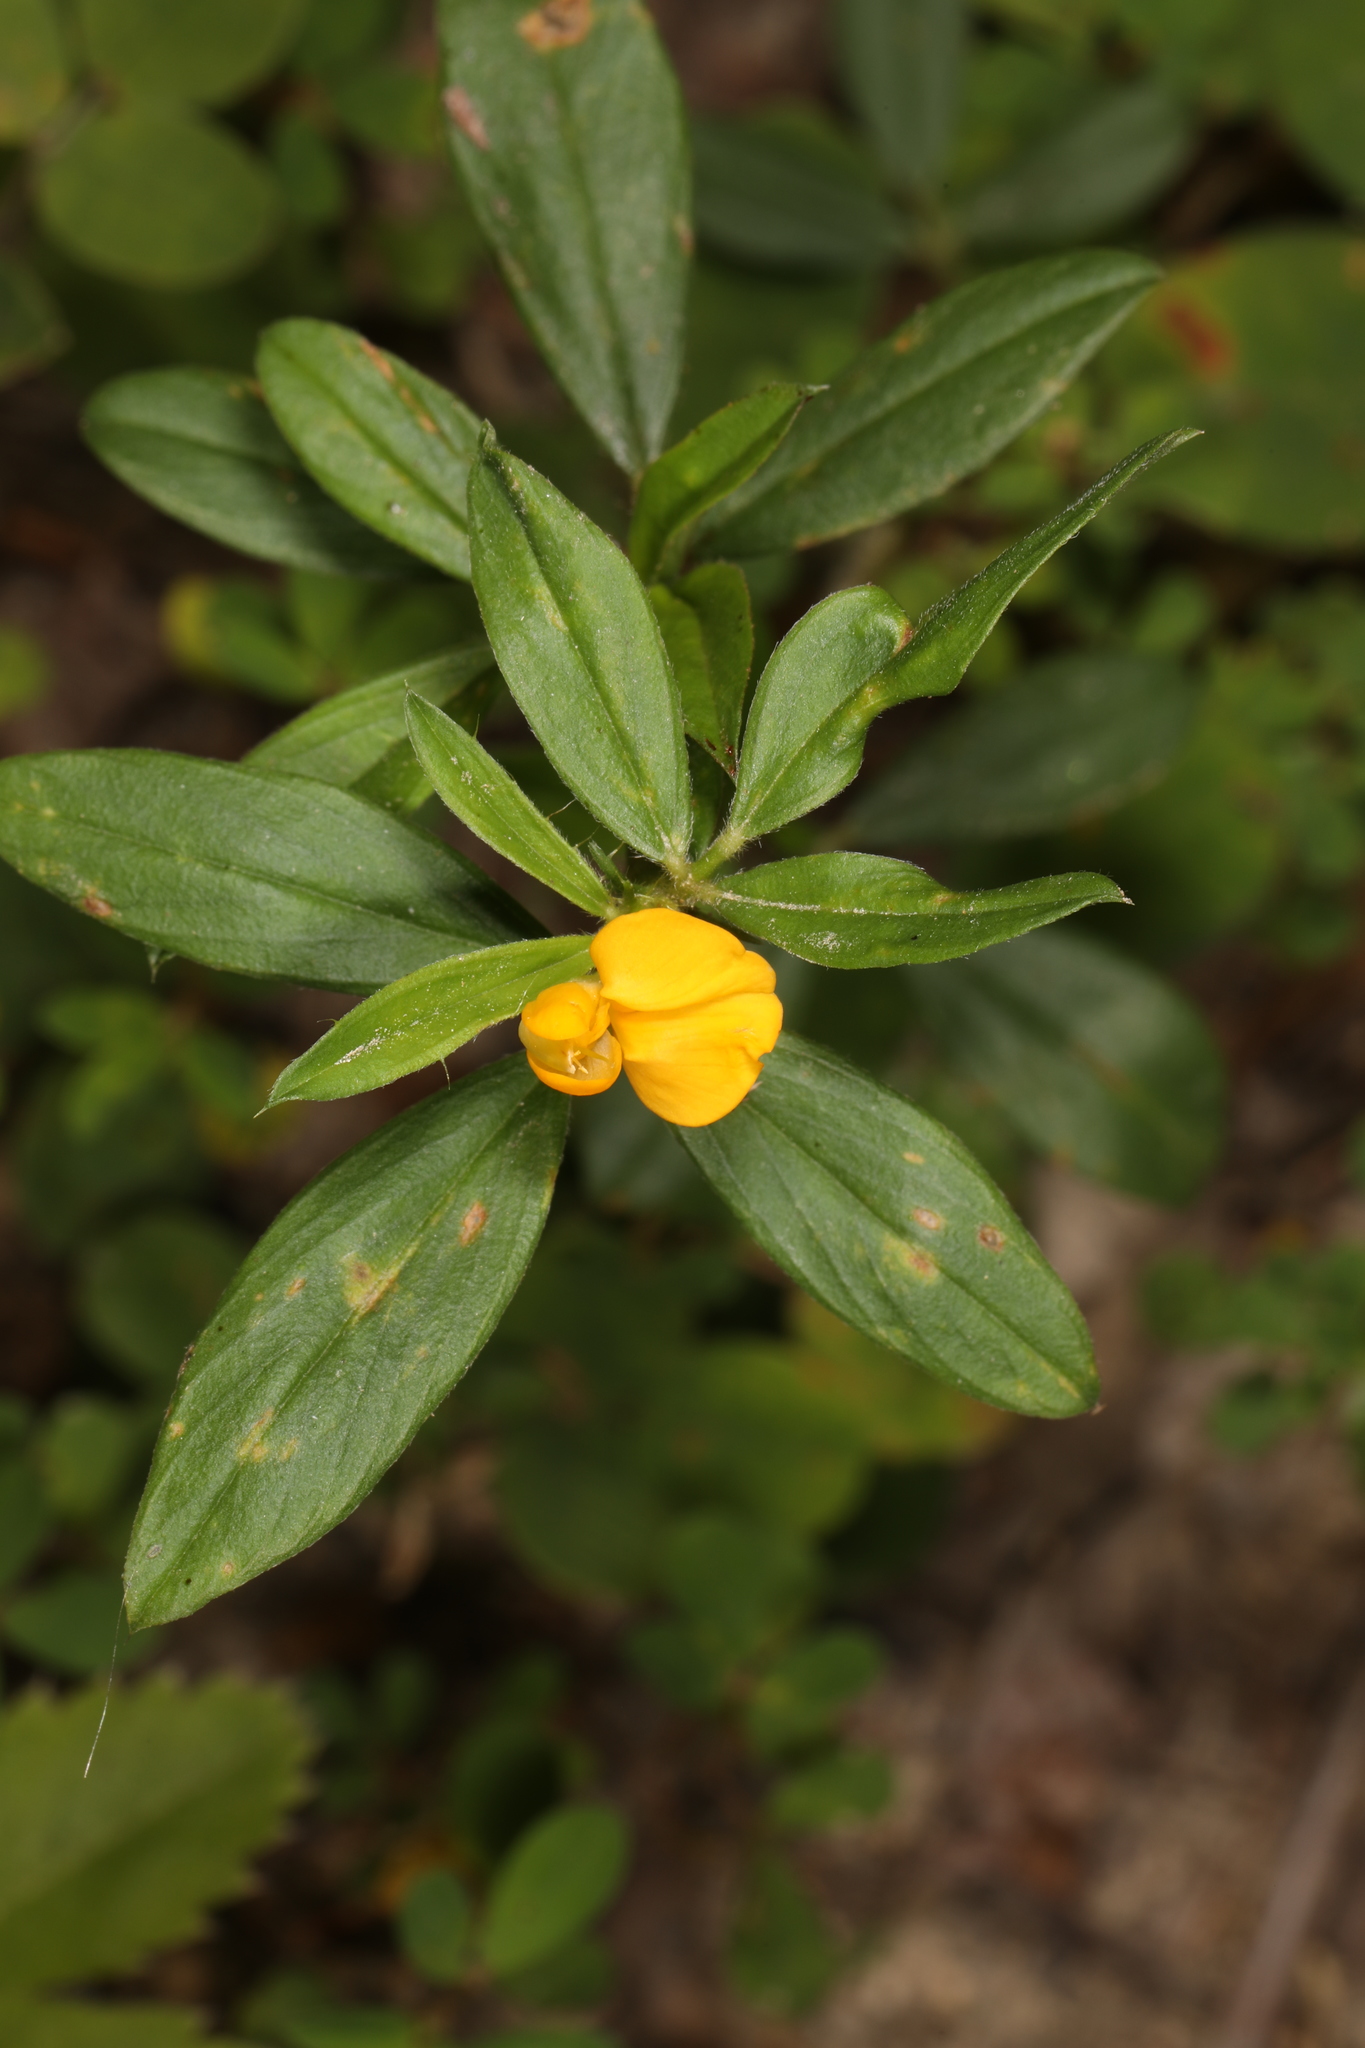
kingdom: Plantae
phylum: Tracheophyta
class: Magnoliopsida
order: Fabales
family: Fabaceae
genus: Stylosanthes
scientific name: Stylosanthes biflora
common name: Two-flower pencil-flower
